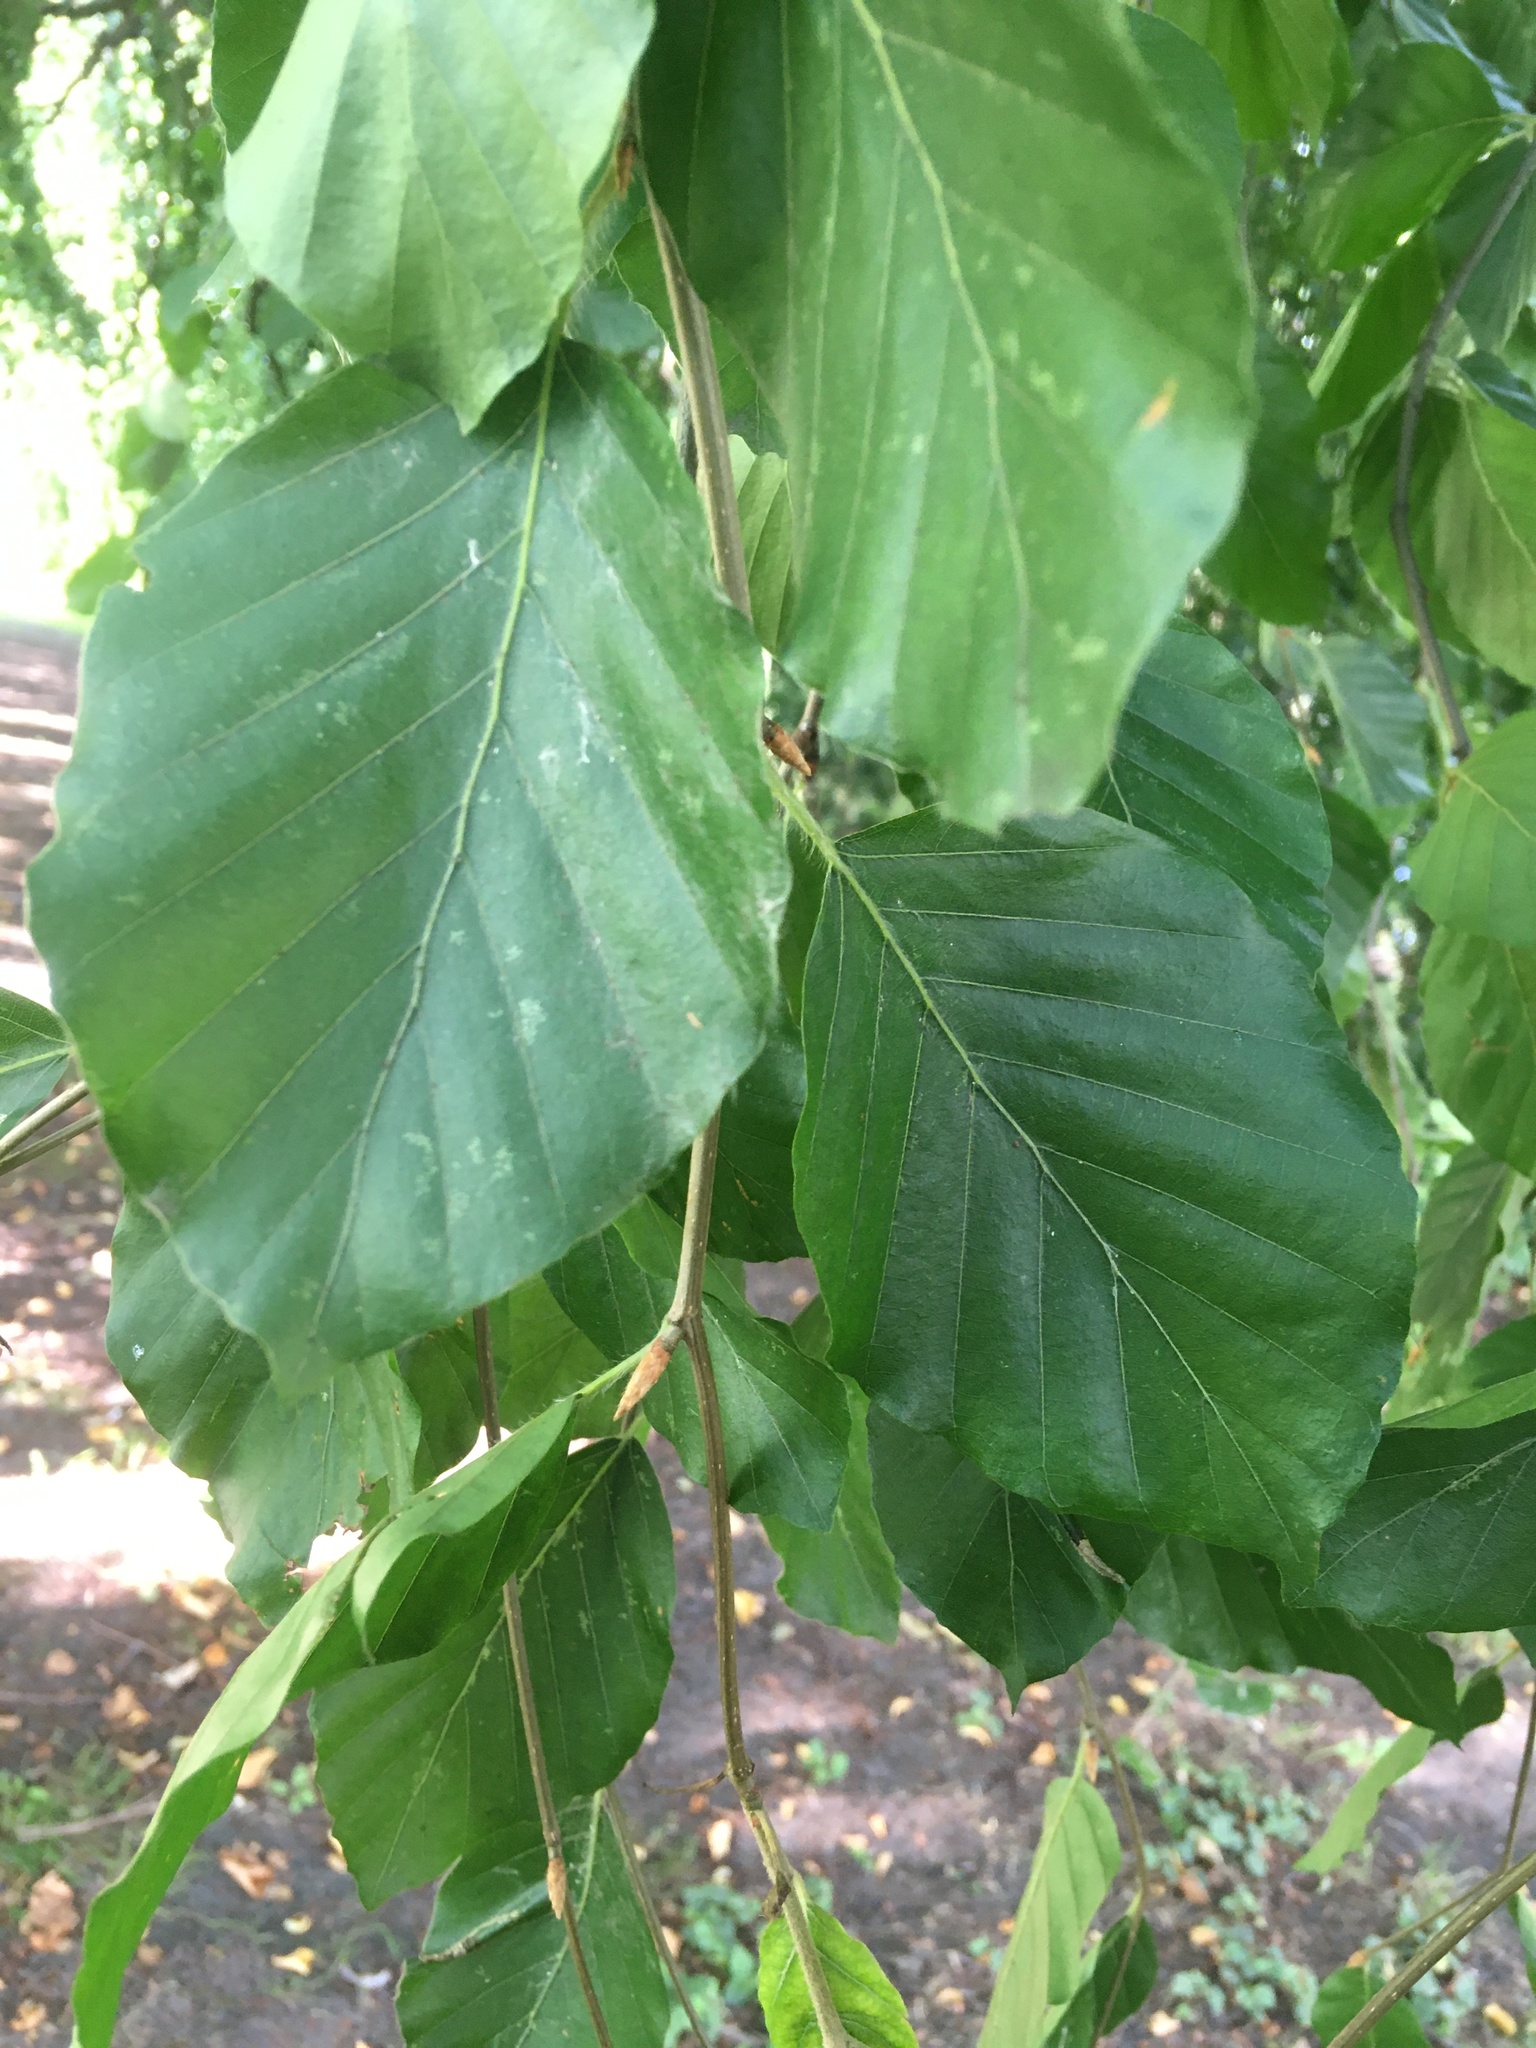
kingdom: Plantae
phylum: Tracheophyta
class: Magnoliopsida
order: Fagales
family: Fagaceae
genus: Fagus
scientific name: Fagus sylvatica
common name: Beech
